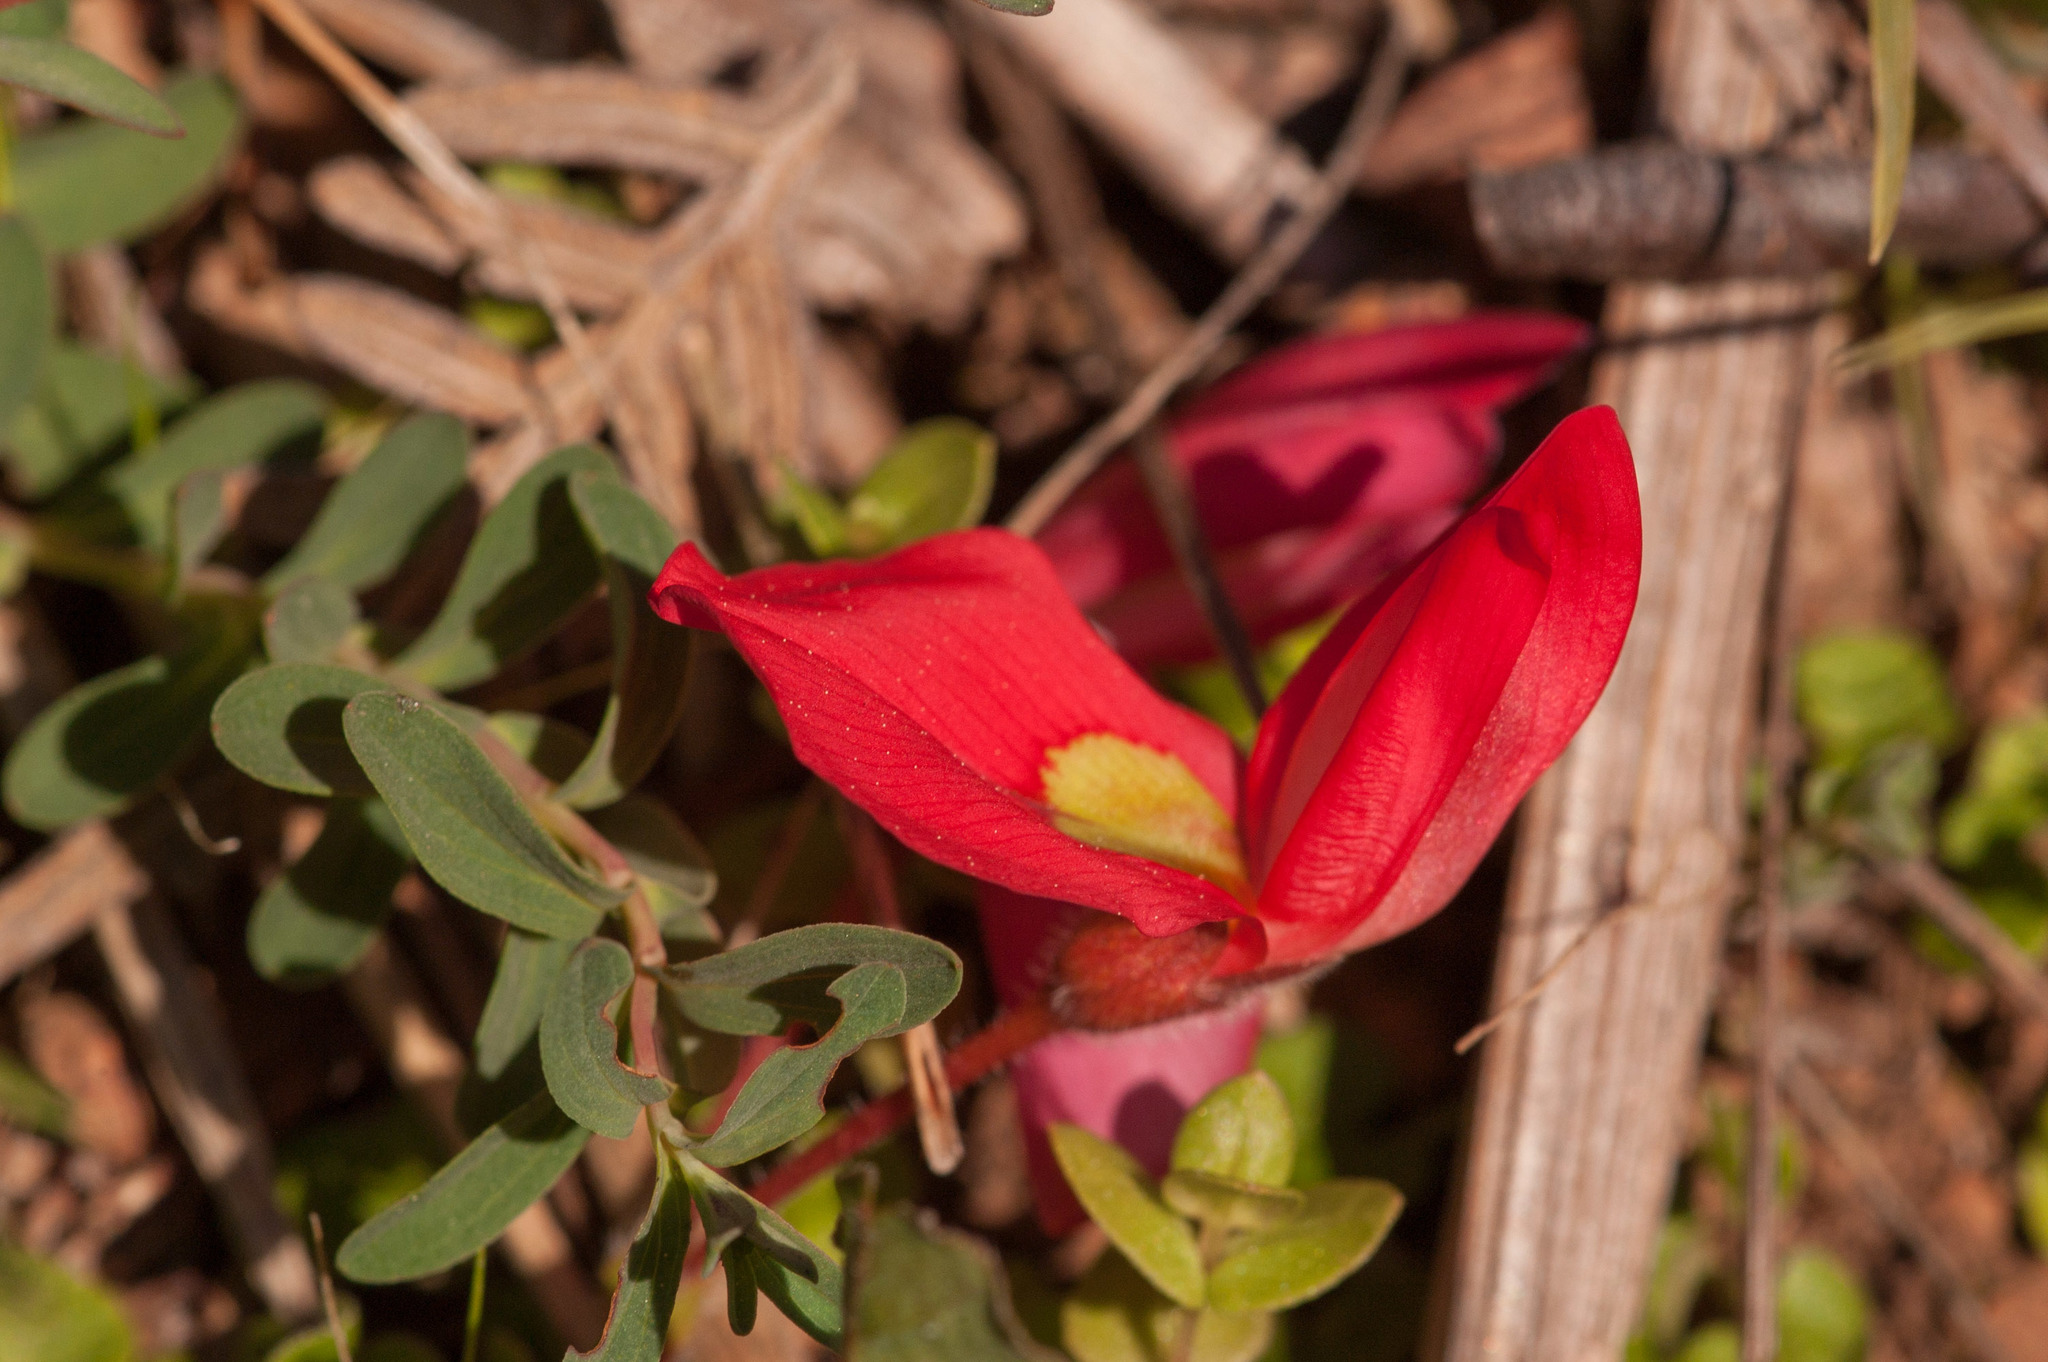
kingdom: Plantae
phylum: Tracheophyta
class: Magnoliopsida
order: Fabales
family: Fabaceae
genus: Kennedia
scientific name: Kennedia prostrata
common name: Running-postman
